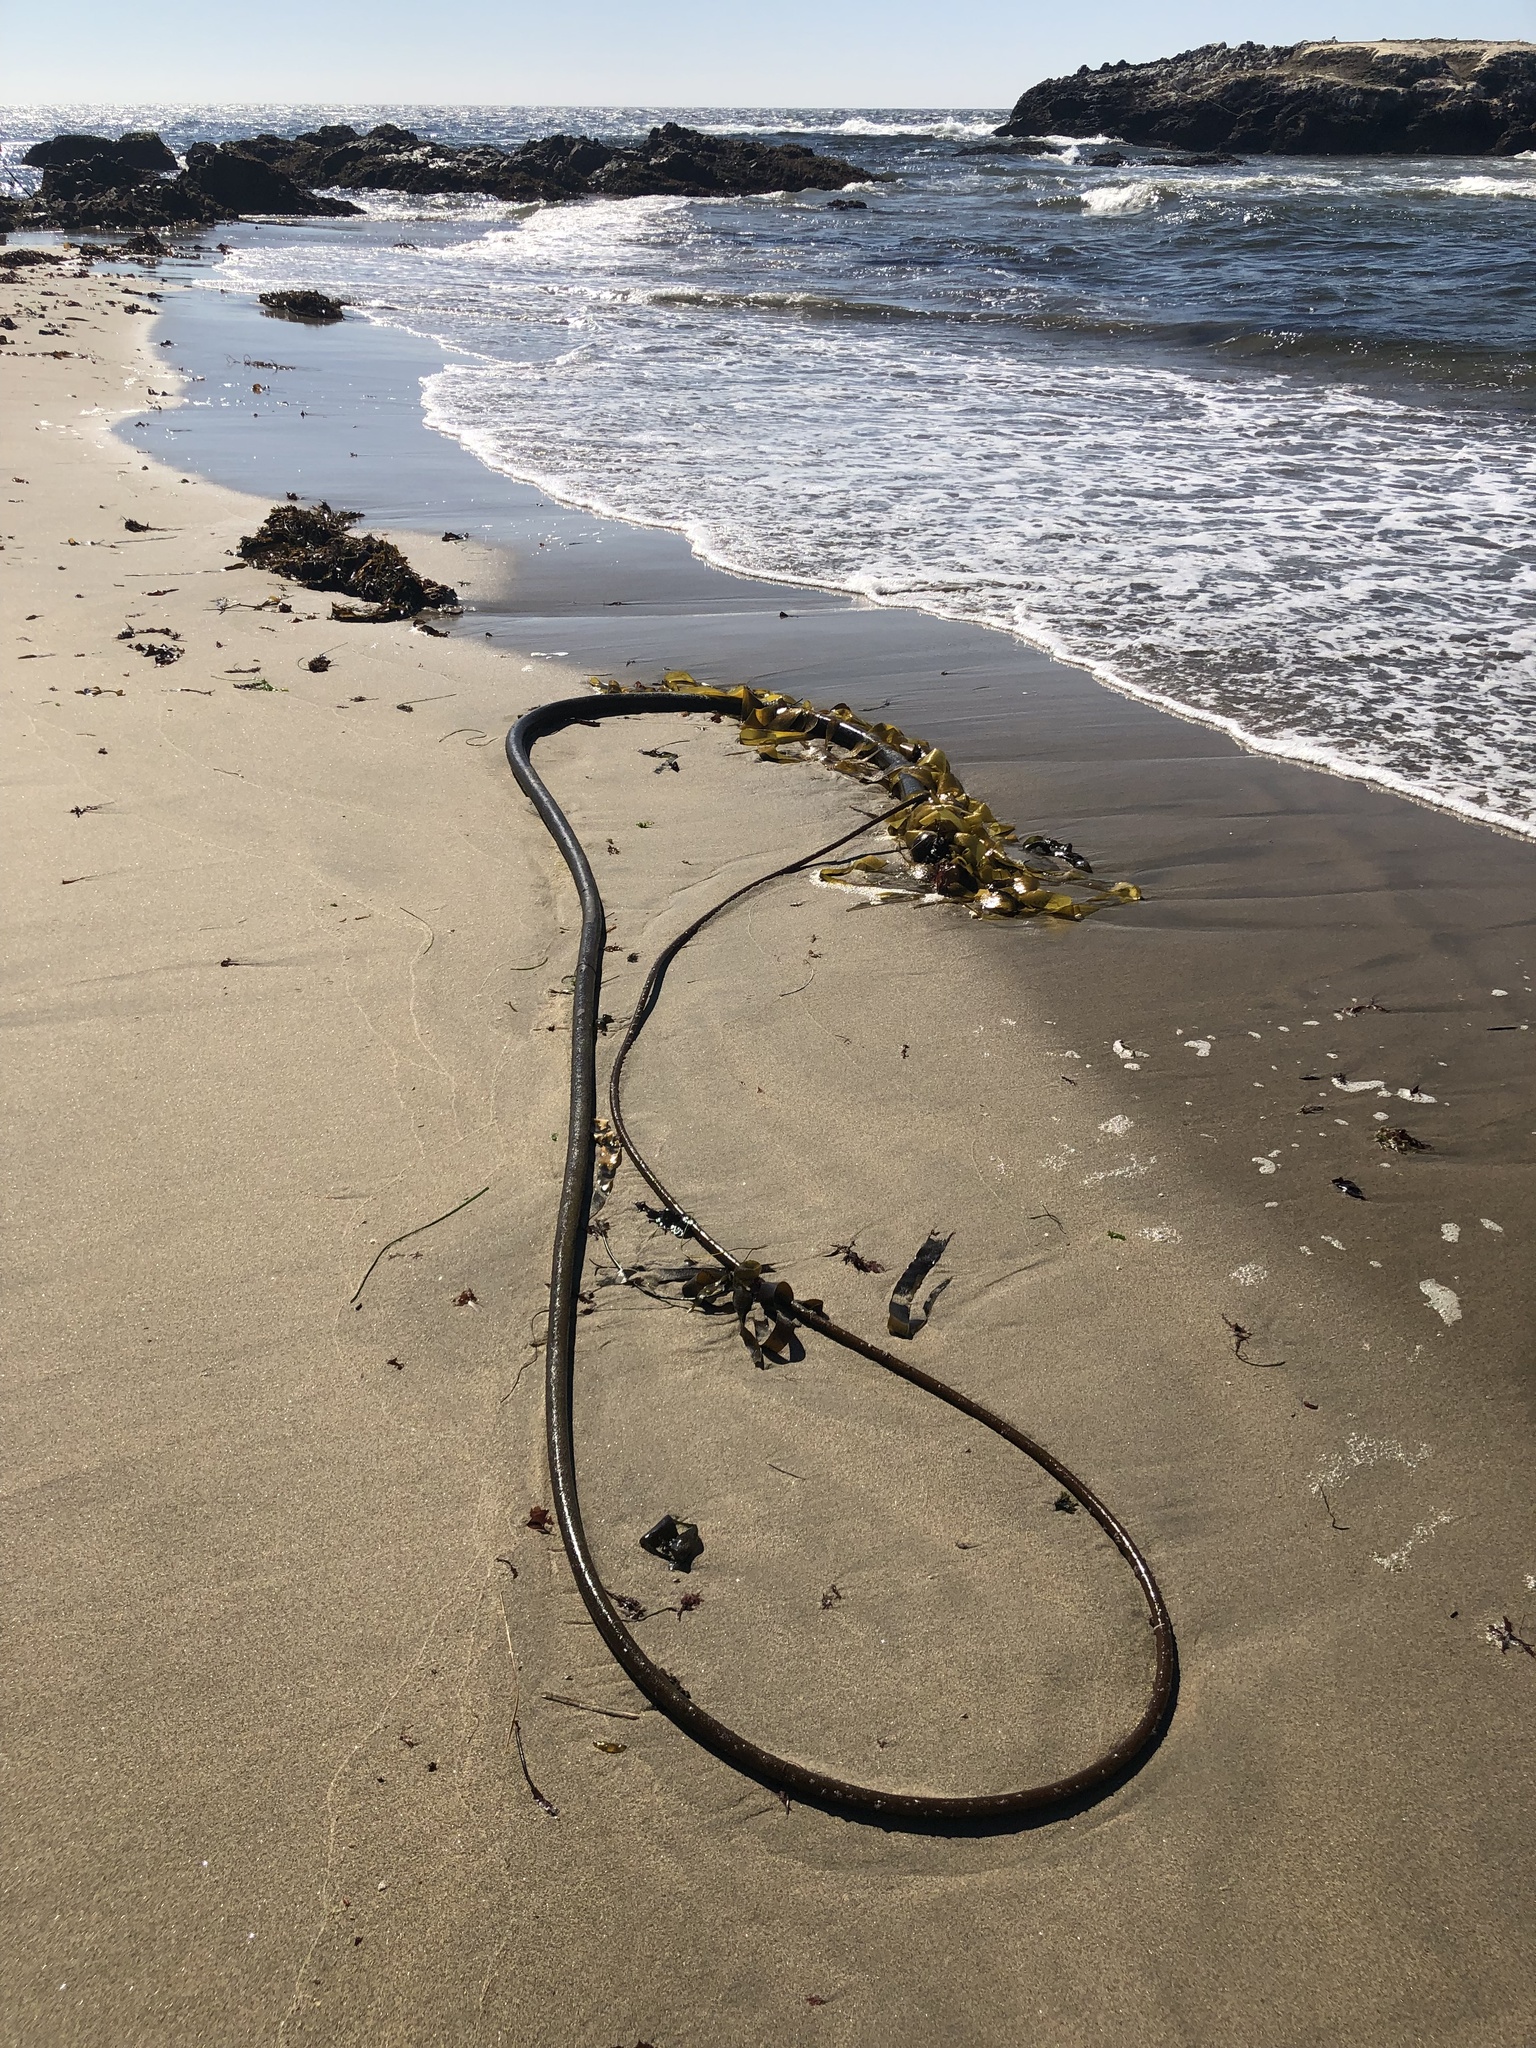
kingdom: Chromista
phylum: Ochrophyta
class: Phaeophyceae
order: Laminariales
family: Laminariaceae
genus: Nereocystis
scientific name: Nereocystis luetkeana
